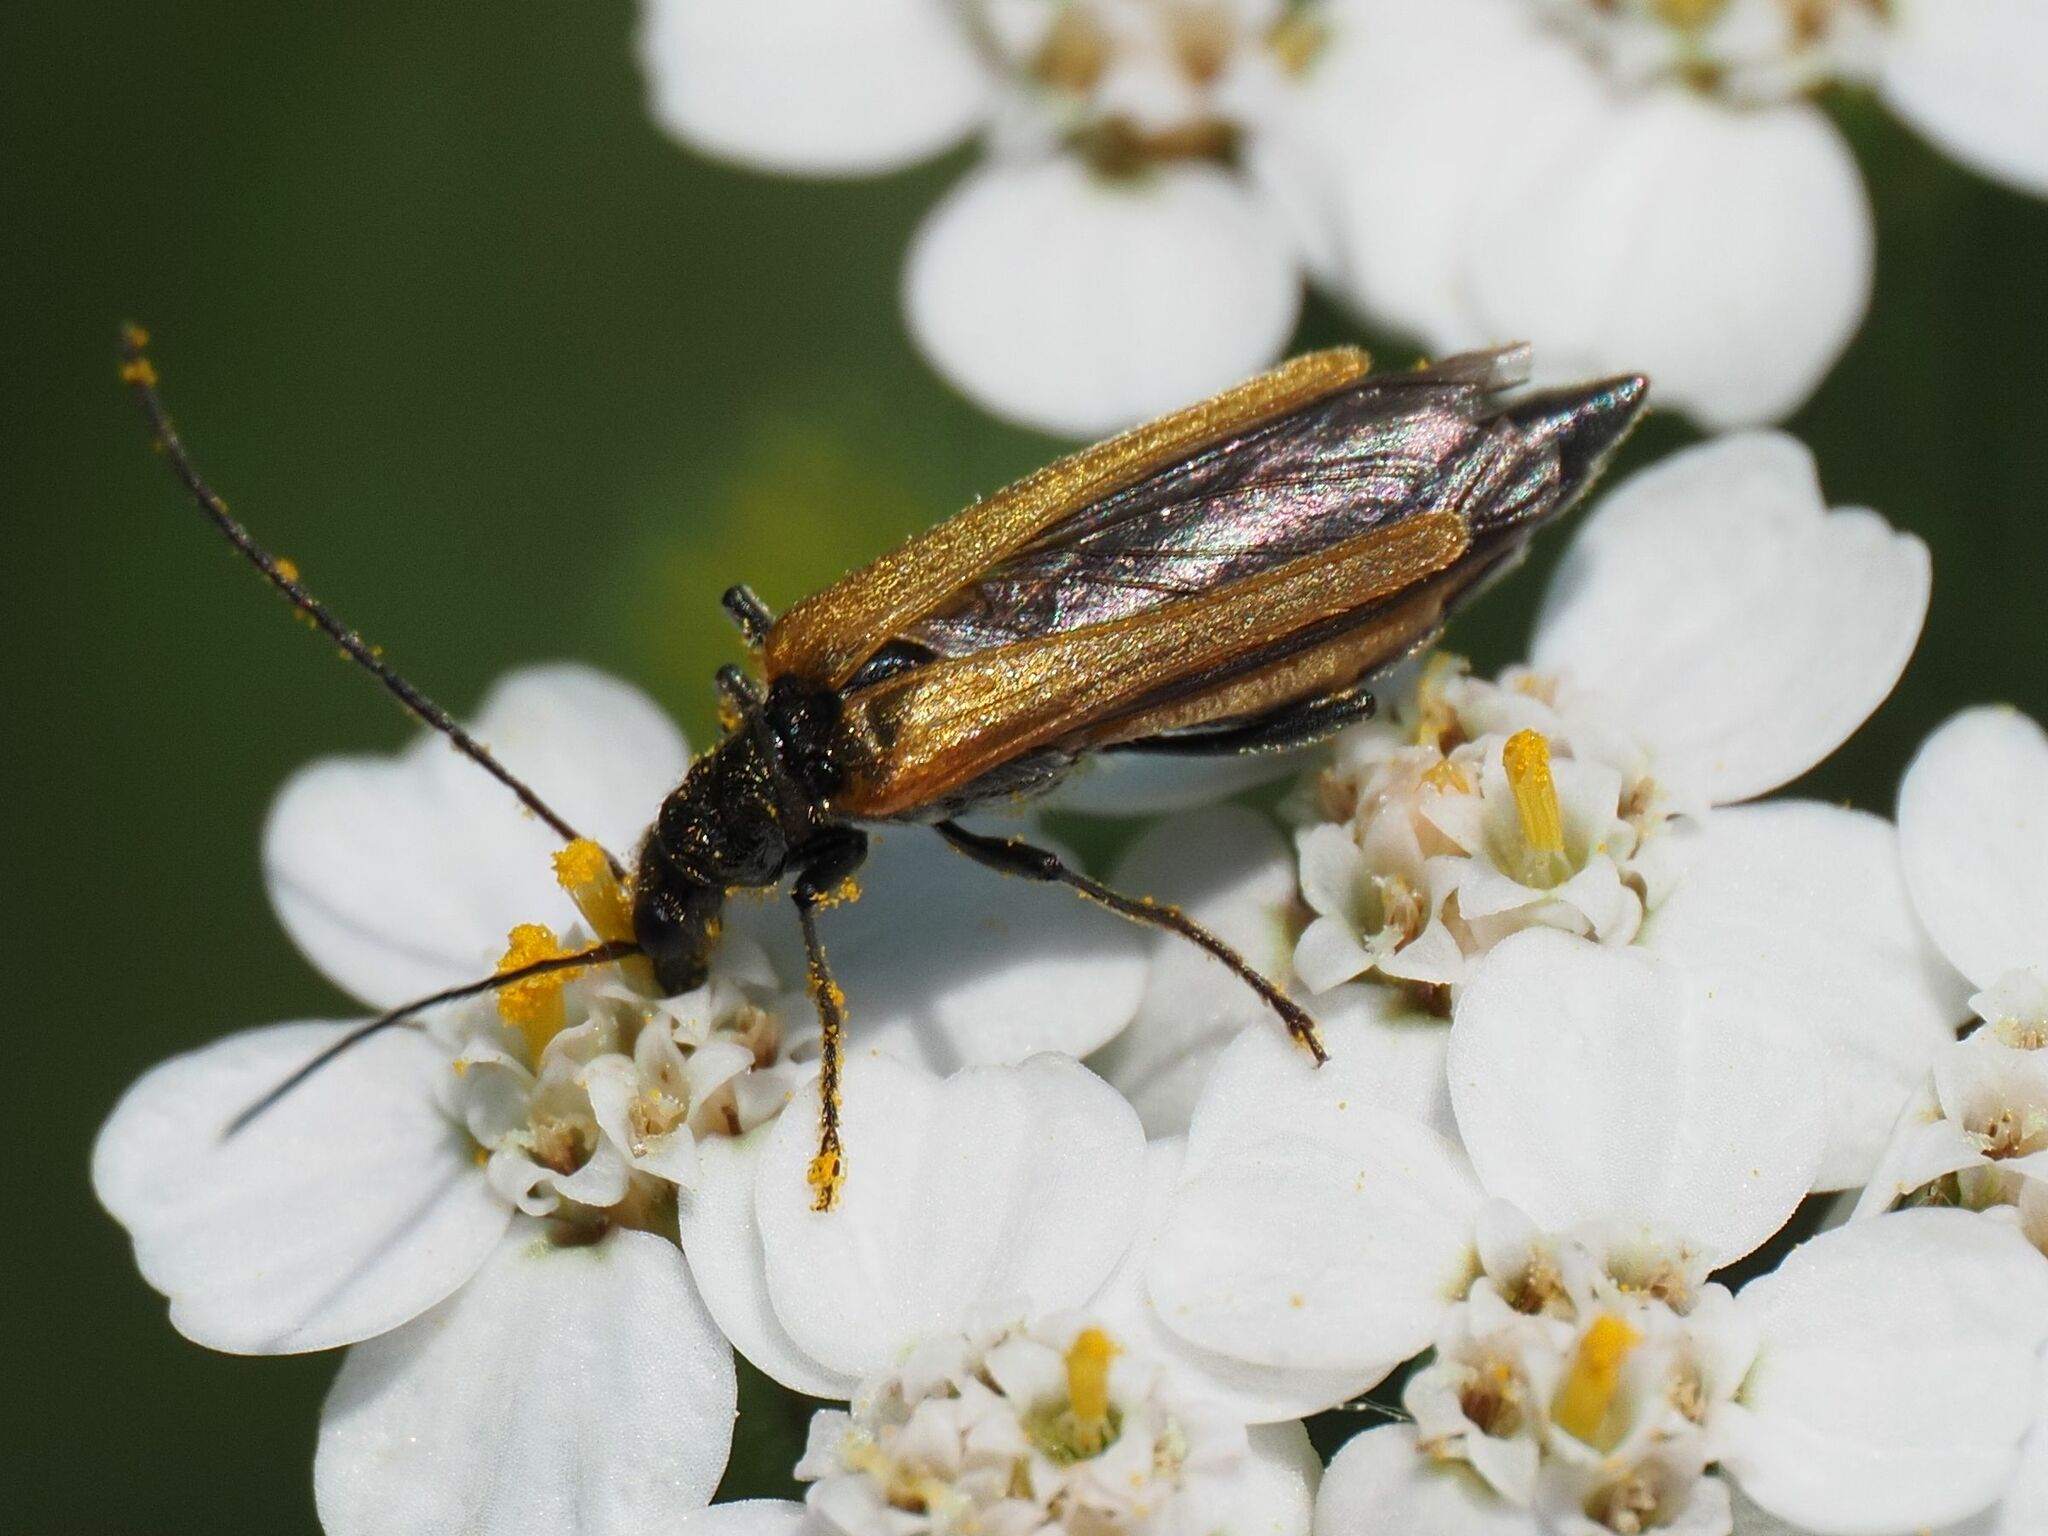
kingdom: Animalia
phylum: Arthropoda
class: Insecta
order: Coleoptera
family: Oedemeridae
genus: Oedemera
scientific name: Oedemera femorata
